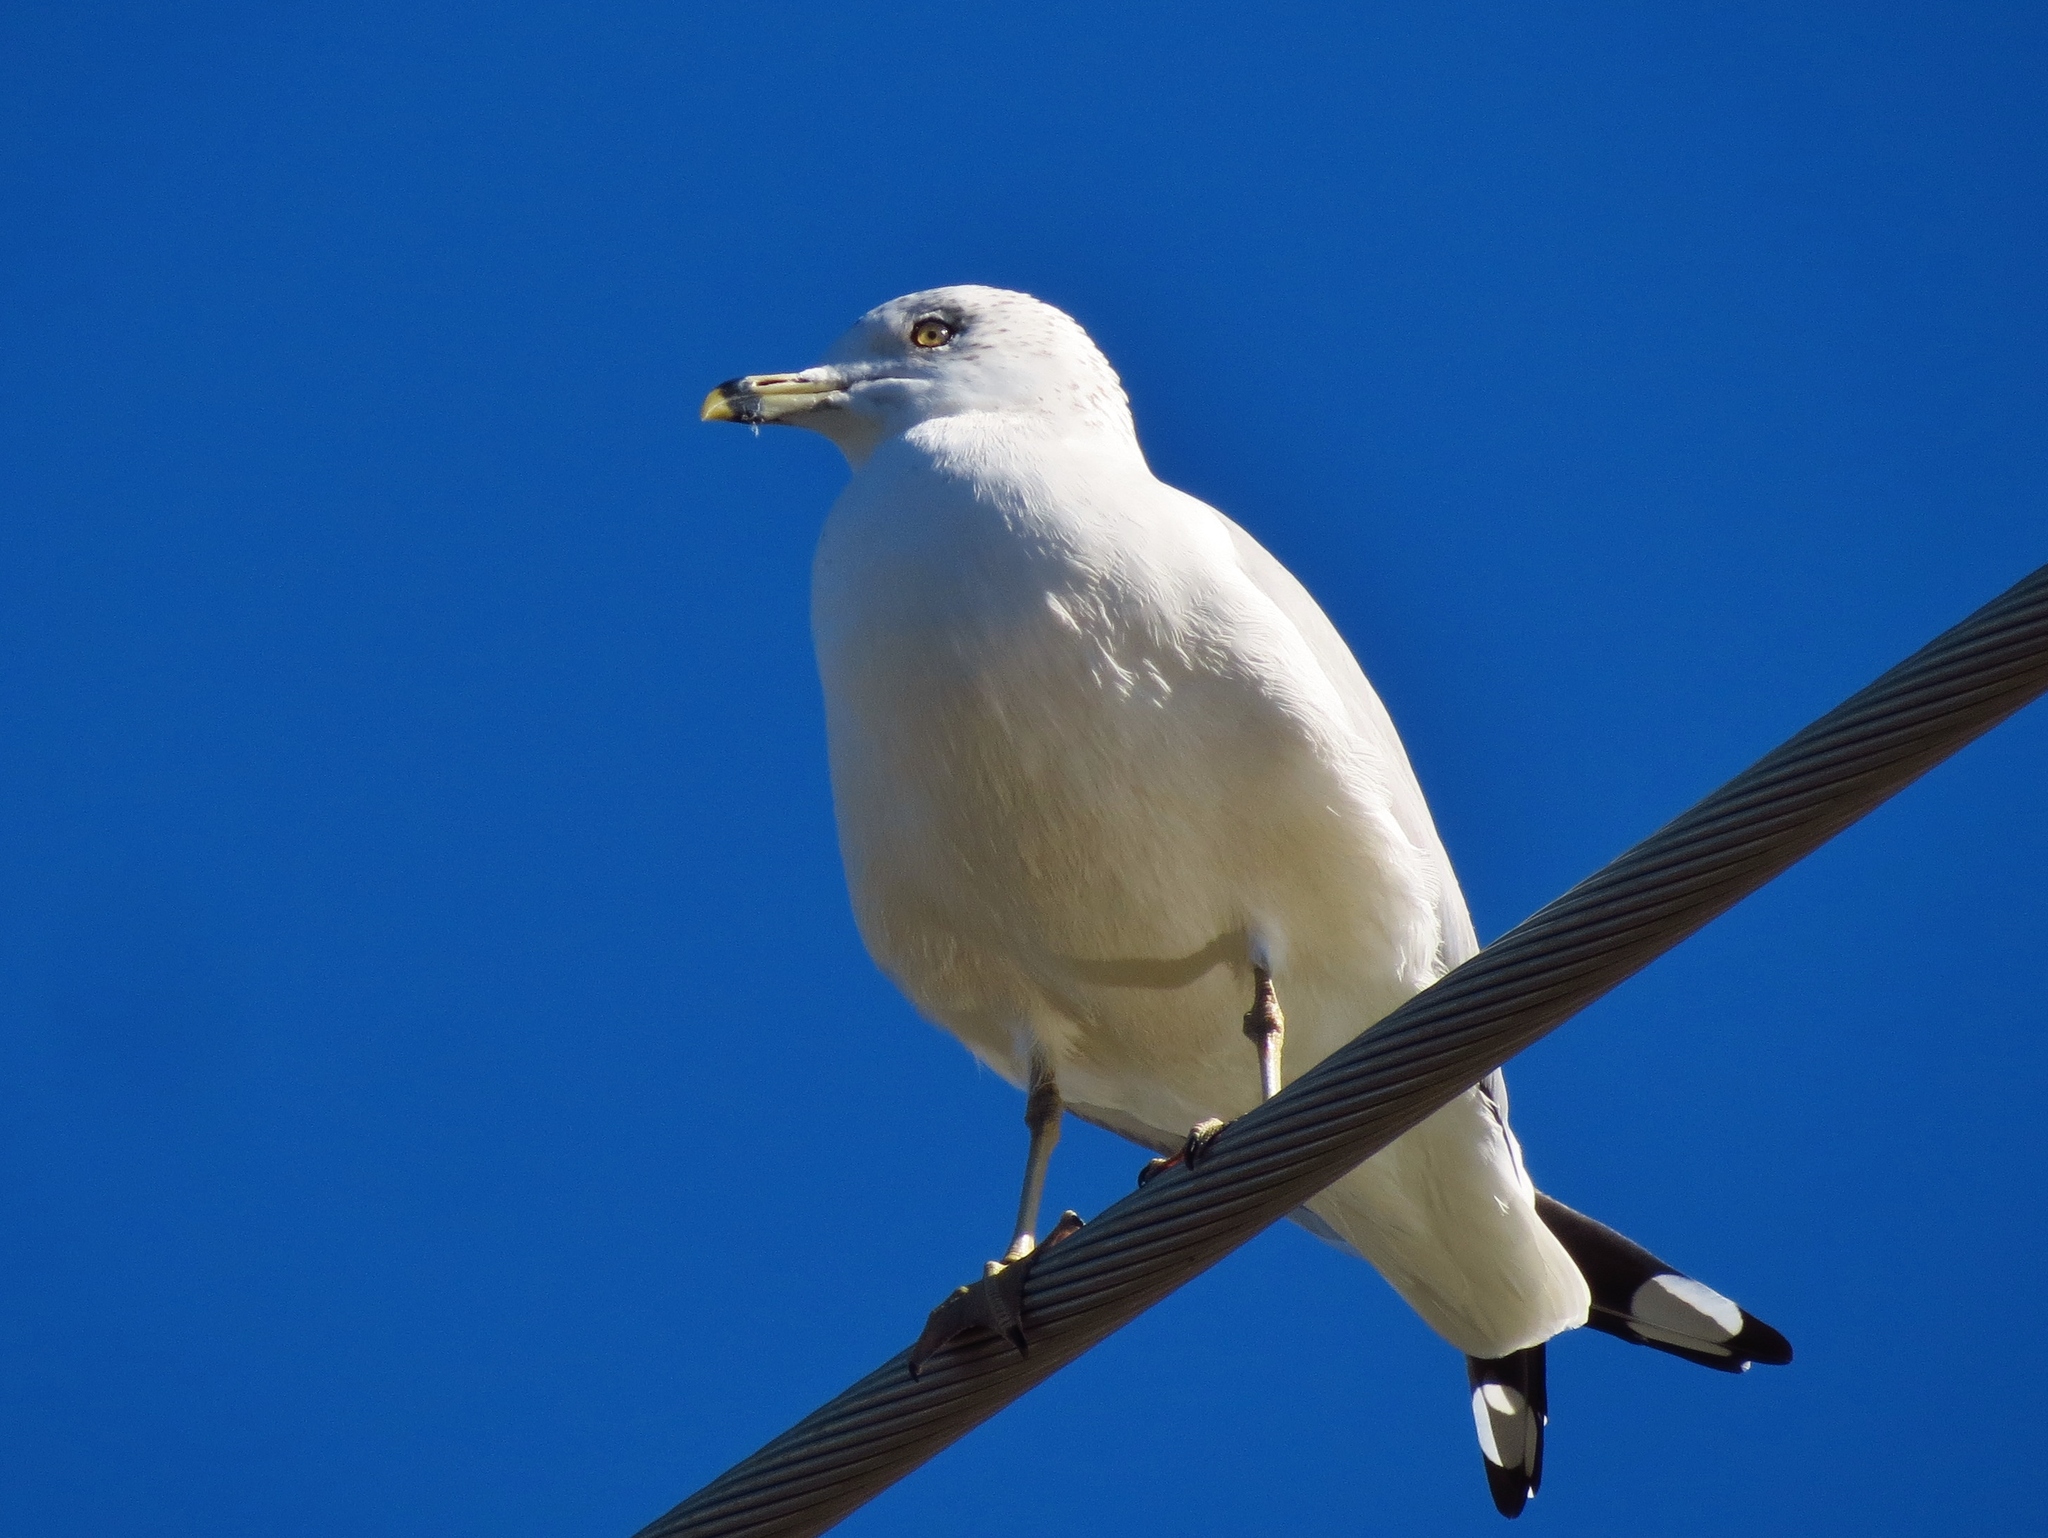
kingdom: Animalia
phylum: Chordata
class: Aves
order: Charadriiformes
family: Laridae
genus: Larus
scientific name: Larus delawarensis
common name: Ring-billed gull
